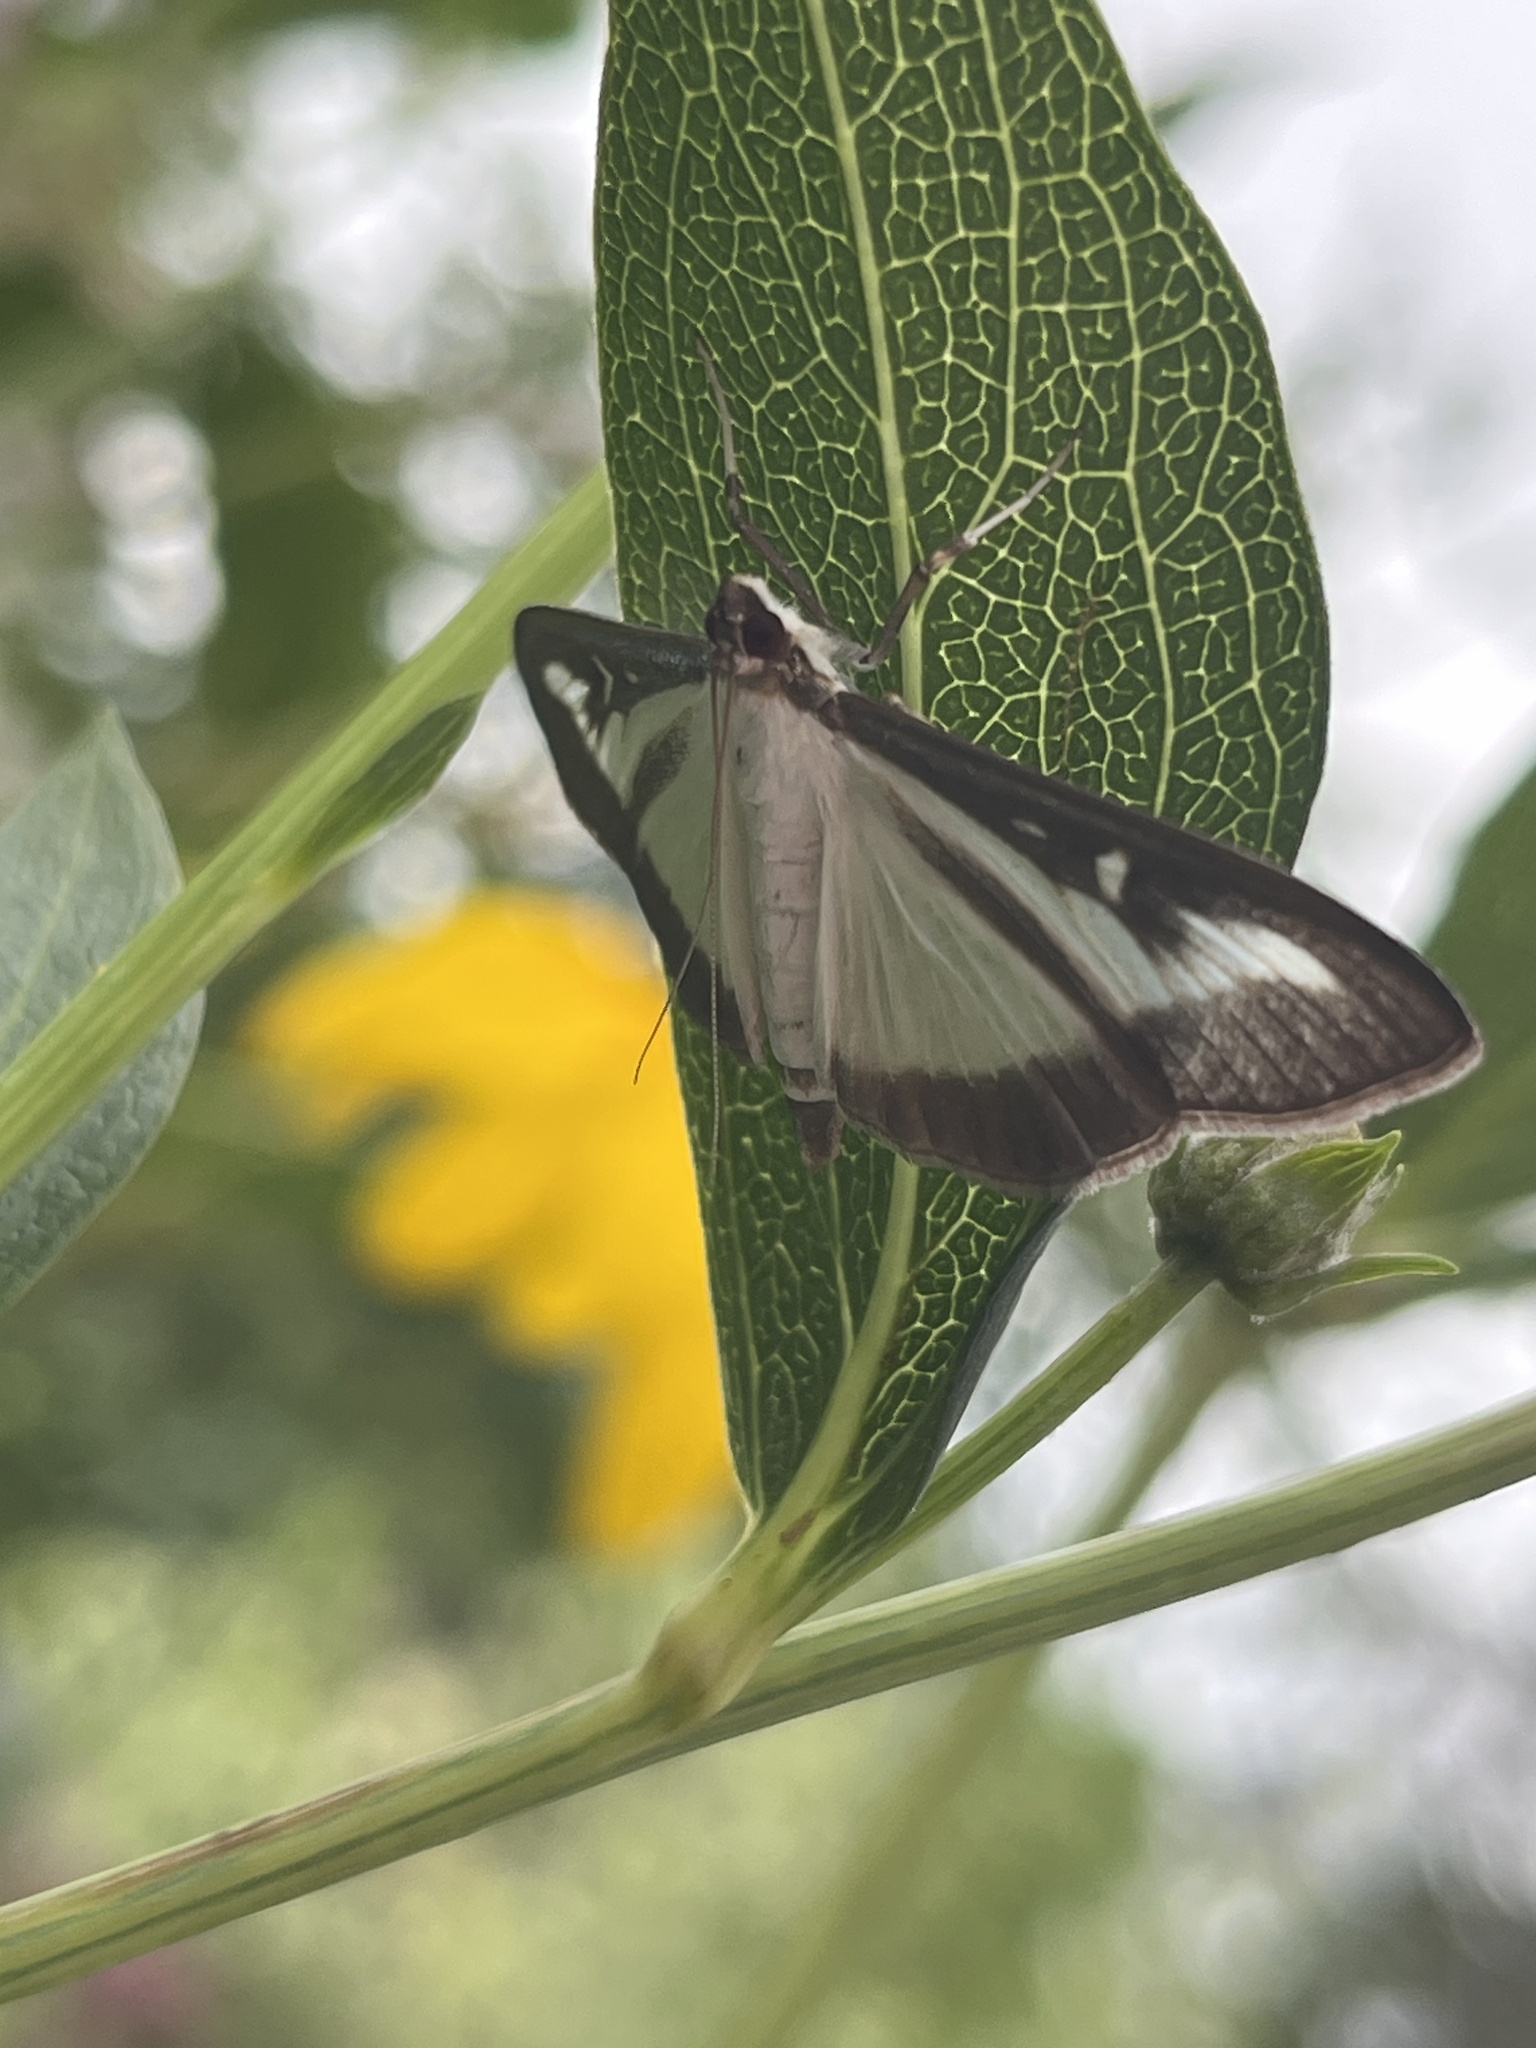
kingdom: Animalia
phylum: Arthropoda
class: Insecta
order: Lepidoptera
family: Crambidae
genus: Cydalima
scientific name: Cydalima perspectalis
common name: Box tree moth
